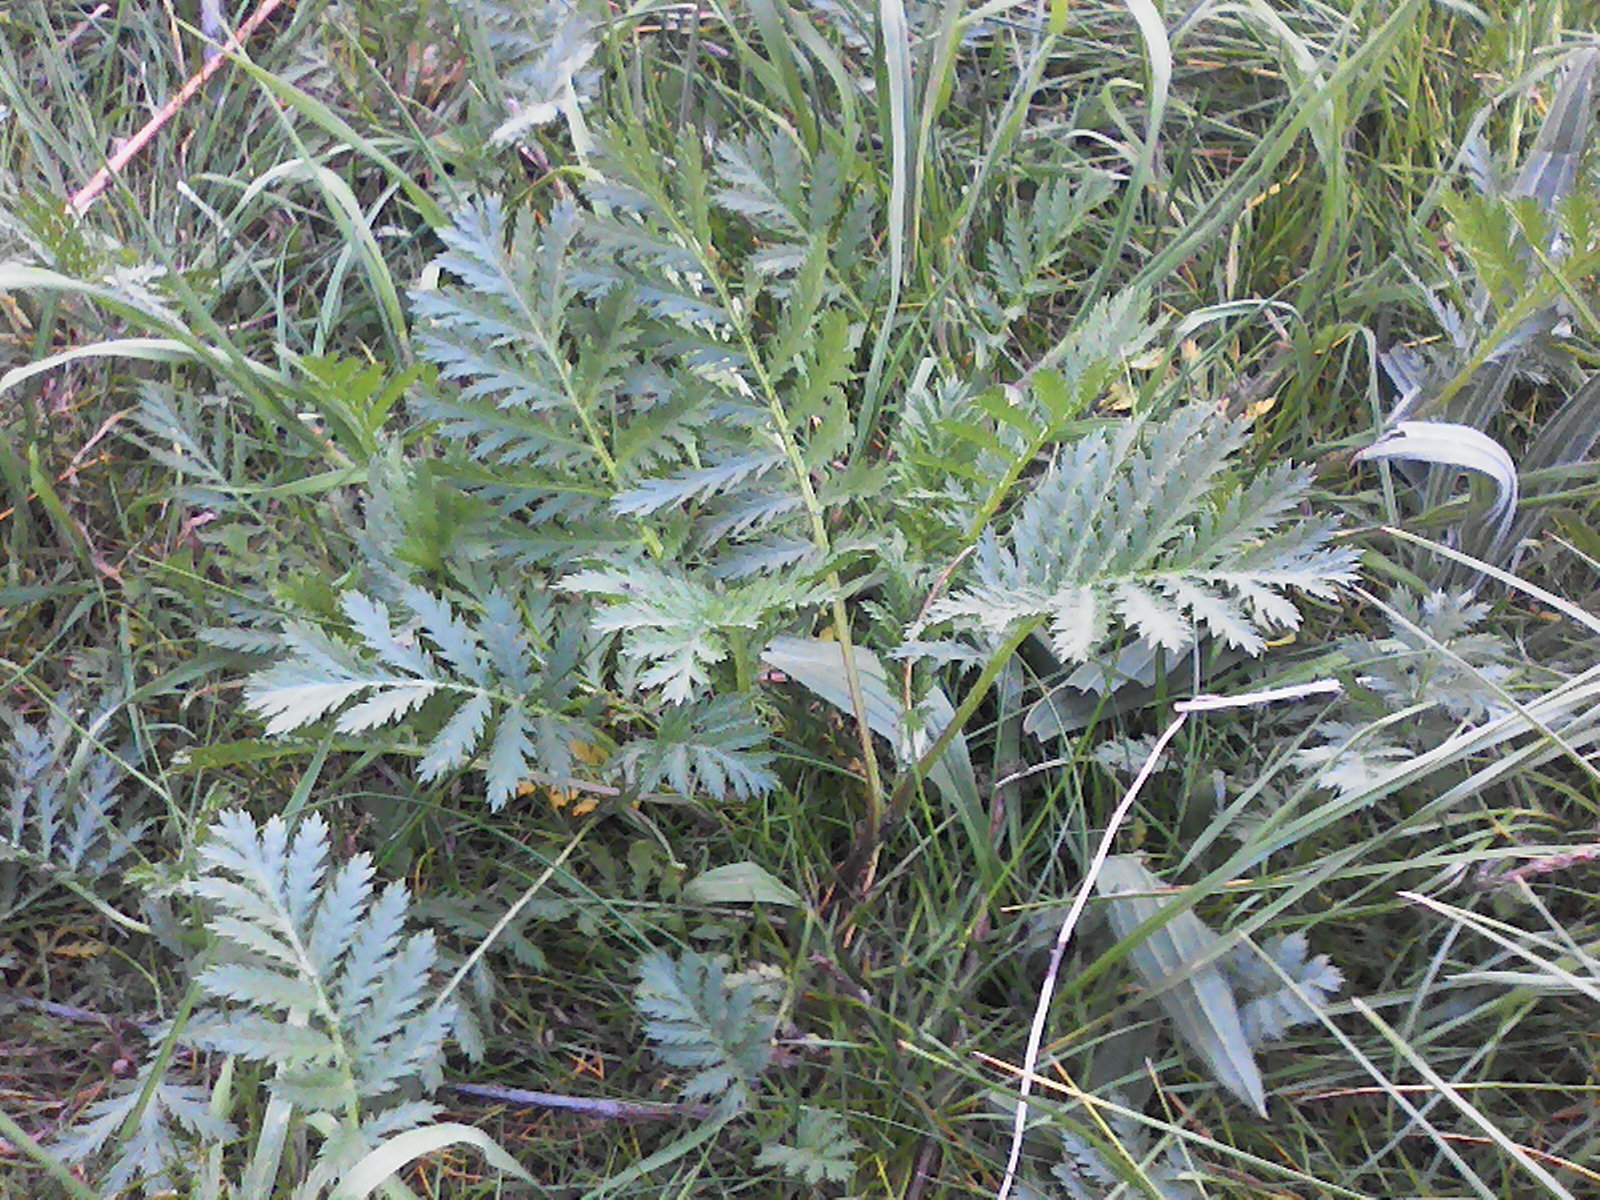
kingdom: Plantae
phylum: Tracheophyta
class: Magnoliopsida
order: Asterales
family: Asteraceae
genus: Tanacetum
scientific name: Tanacetum vulgare
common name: Common tansy
